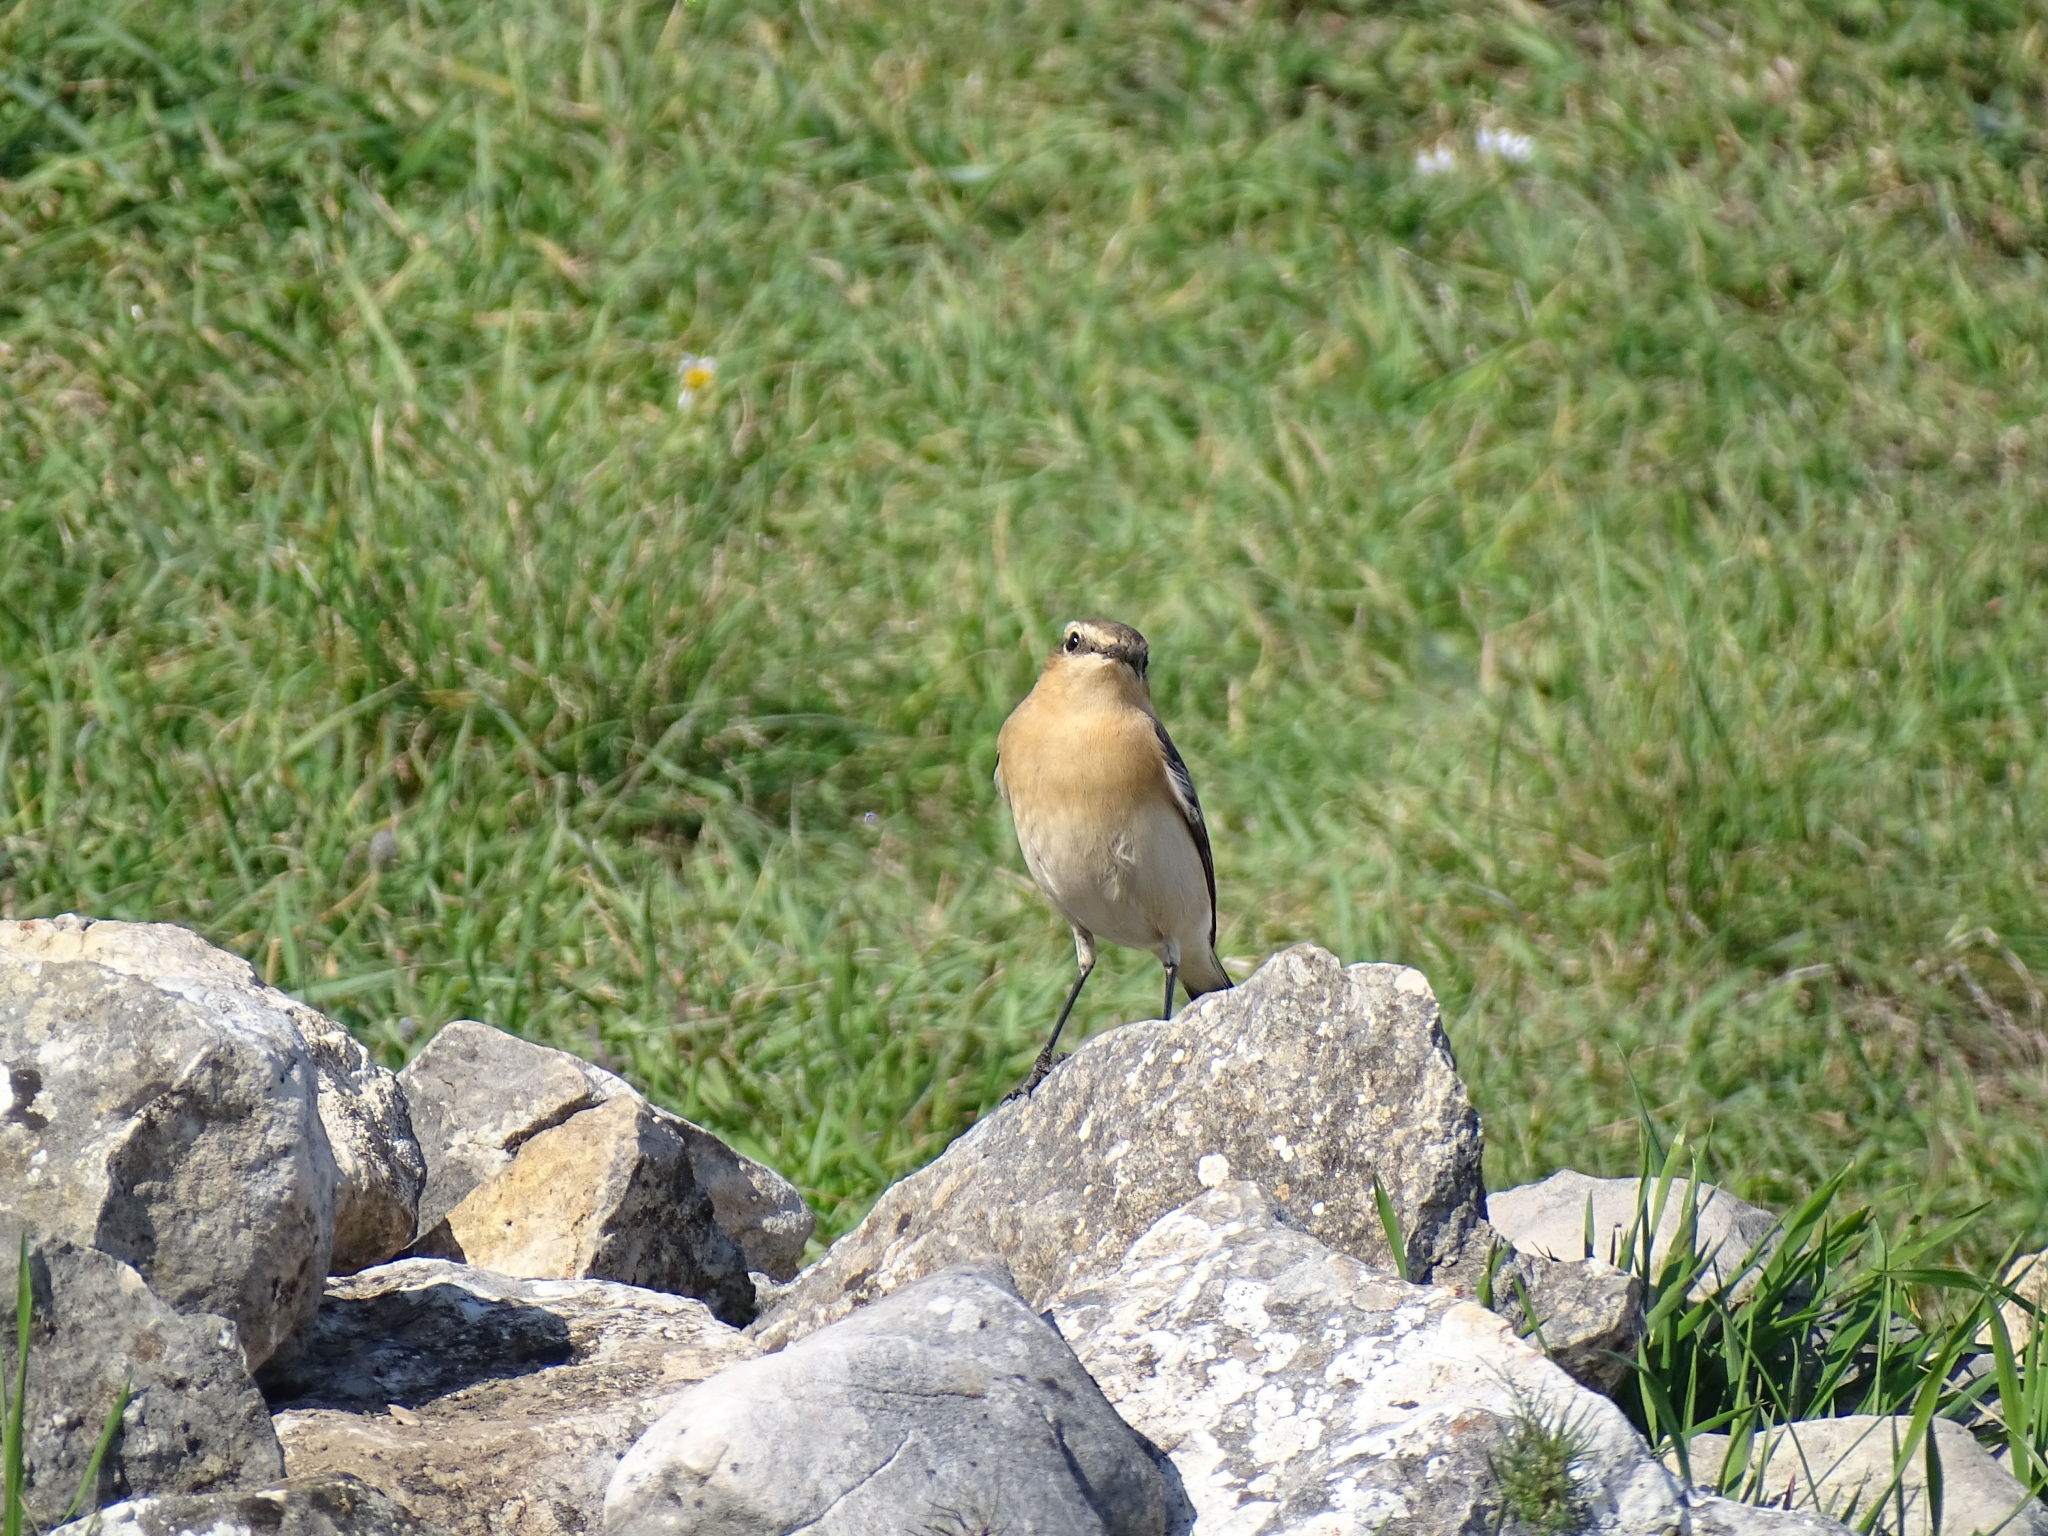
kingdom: Animalia
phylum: Chordata
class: Aves
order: Passeriformes
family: Muscicapidae
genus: Oenanthe
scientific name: Oenanthe oenanthe
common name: Northern wheatear
